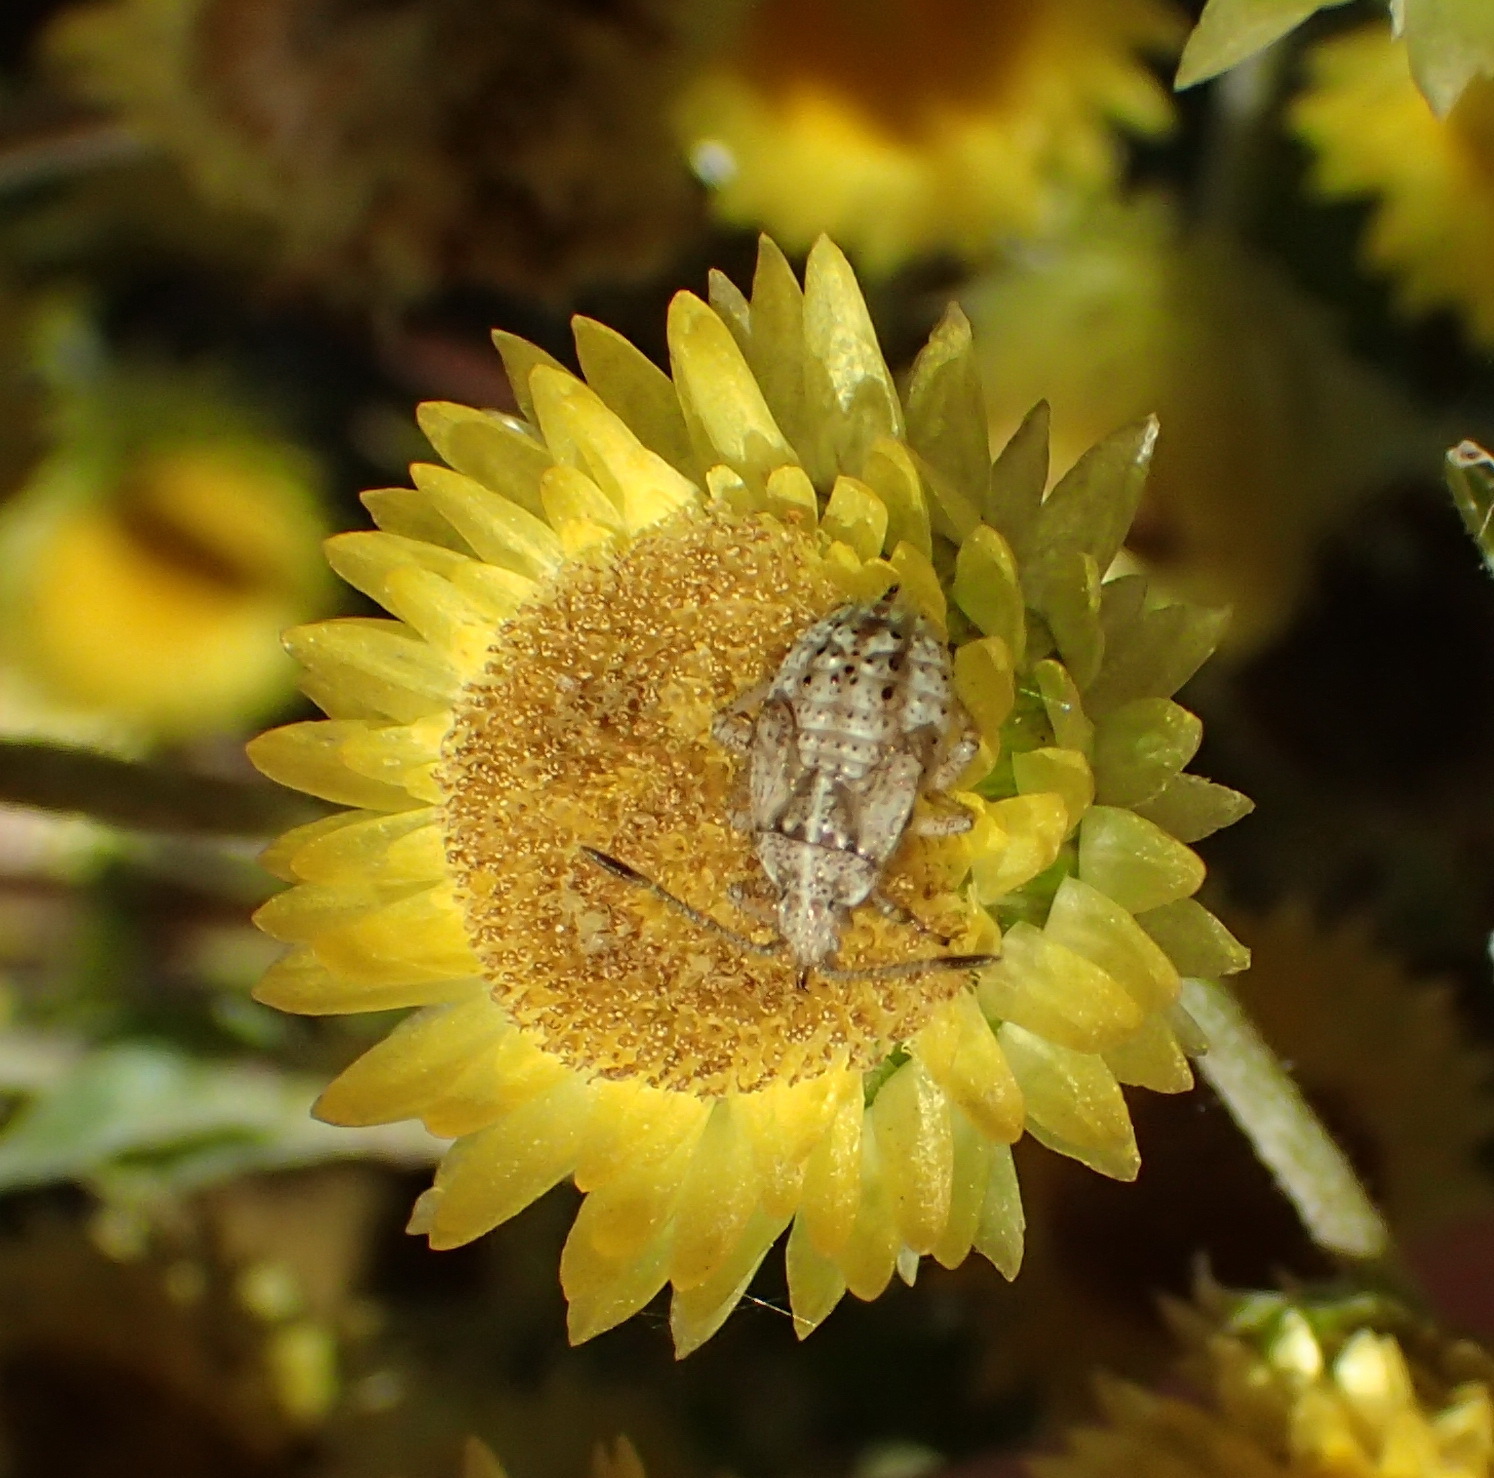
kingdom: Plantae
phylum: Tracheophyta
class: Magnoliopsida
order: Asterales
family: Asteraceae
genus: Helichrysum
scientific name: Helichrysum foetidum
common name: Stinking everlasting
